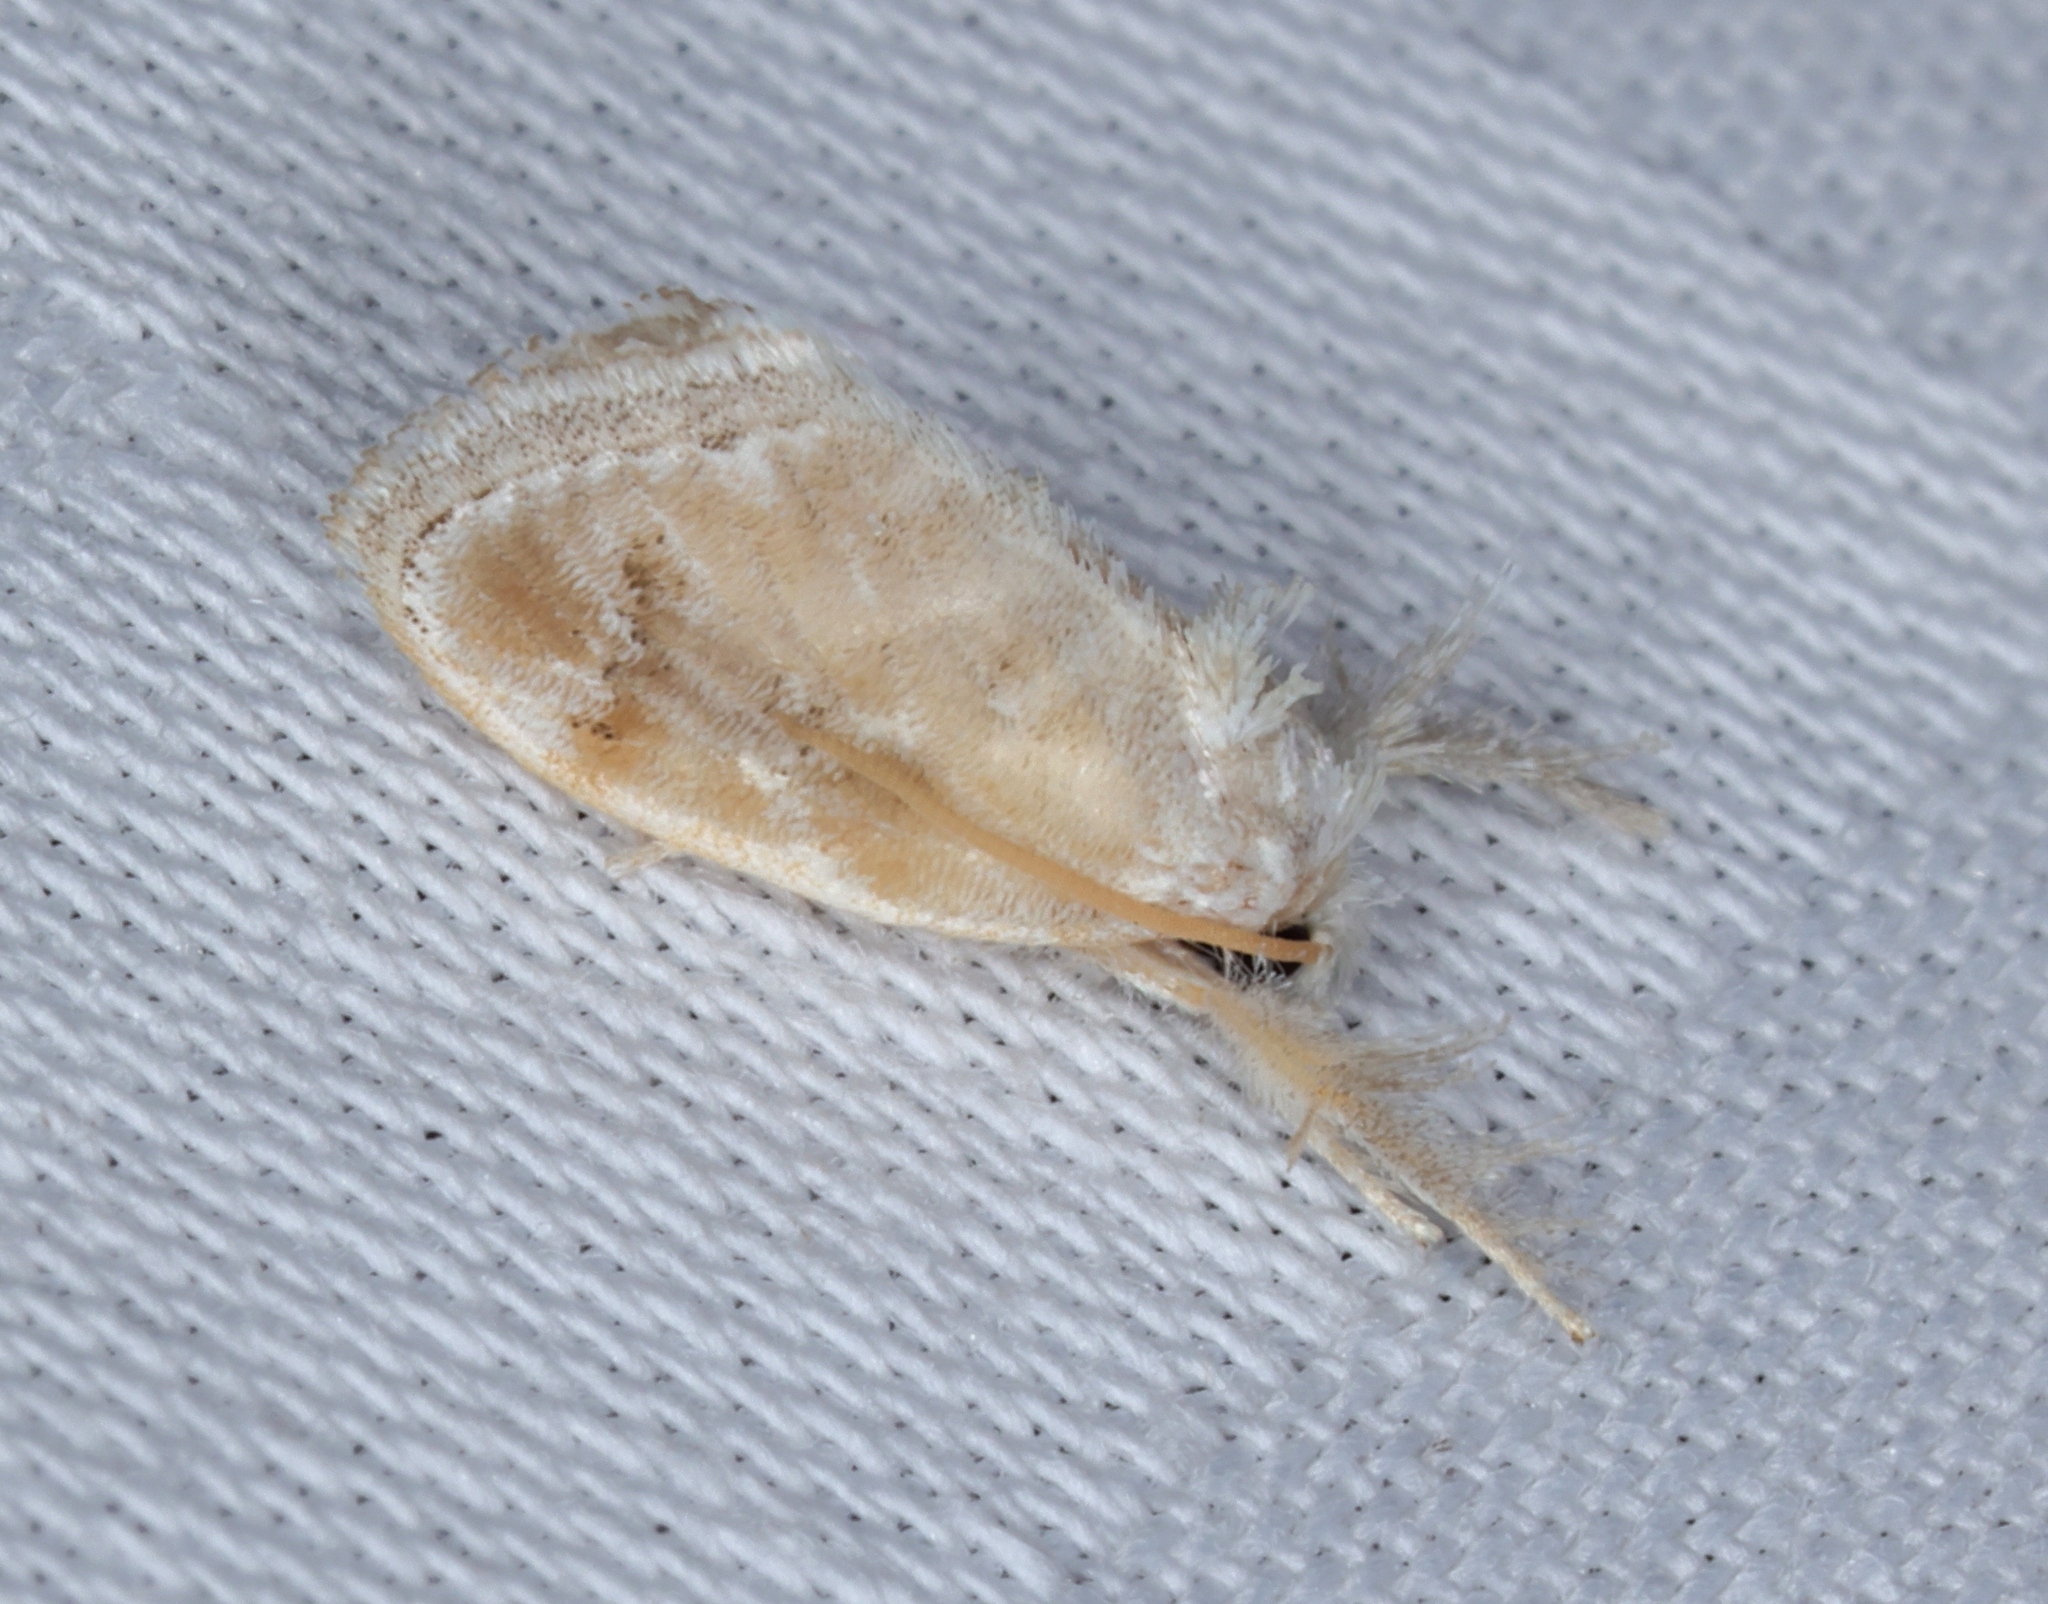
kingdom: Animalia
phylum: Arthropoda
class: Insecta
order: Lepidoptera
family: Limacodidae
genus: Narosa
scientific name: Narosa nigrisigna
